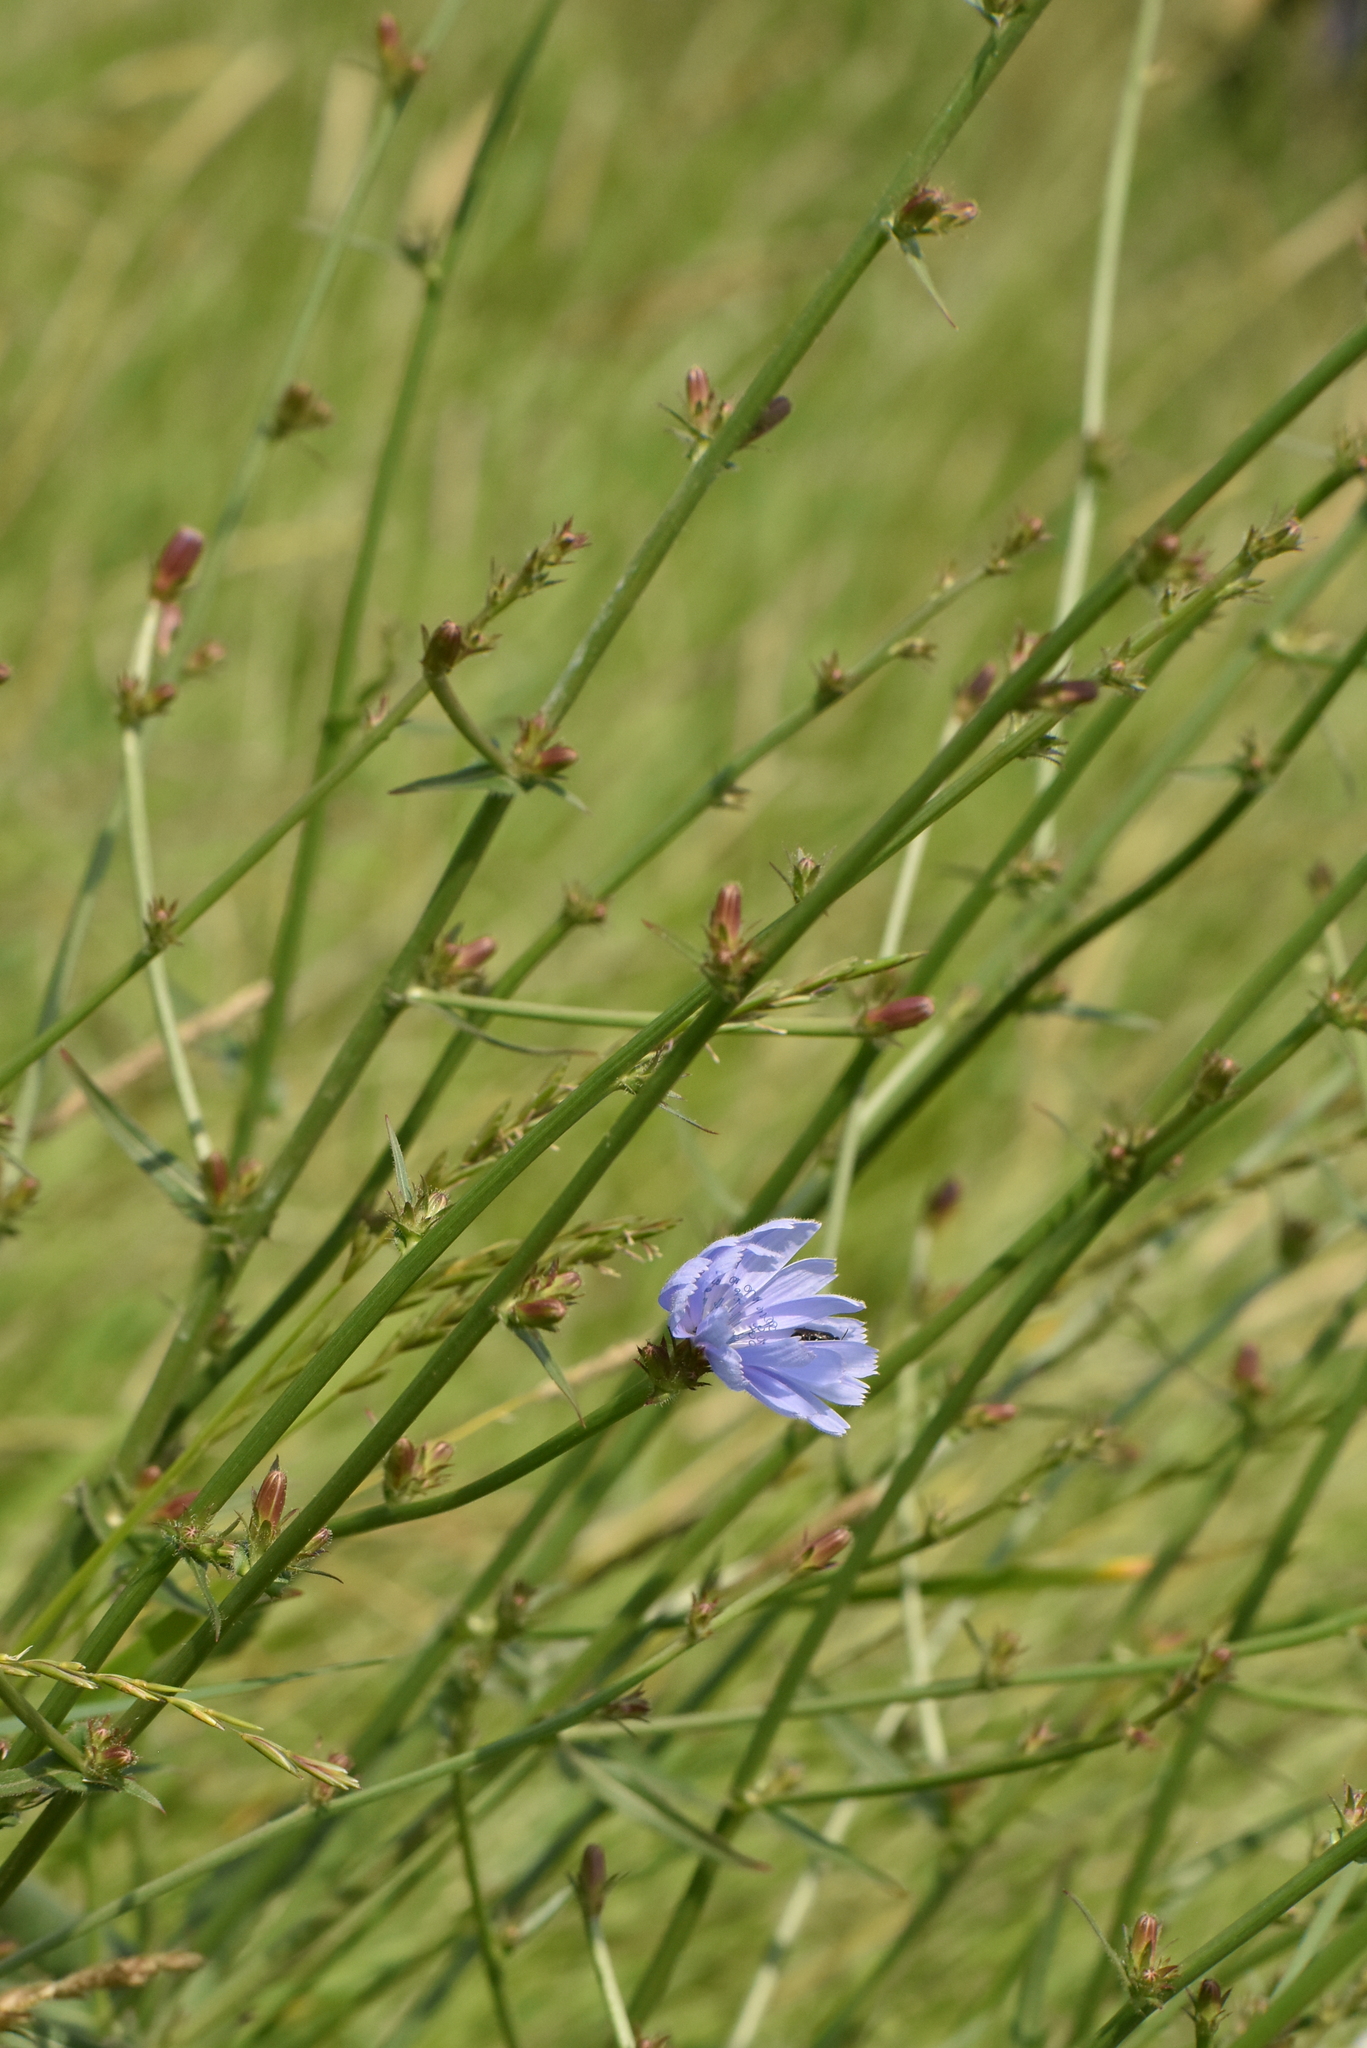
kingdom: Plantae
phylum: Tracheophyta
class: Magnoliopsida
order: Asterales
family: Asteraceae
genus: Cichorium
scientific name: Cichorium intybus
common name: Chicory
